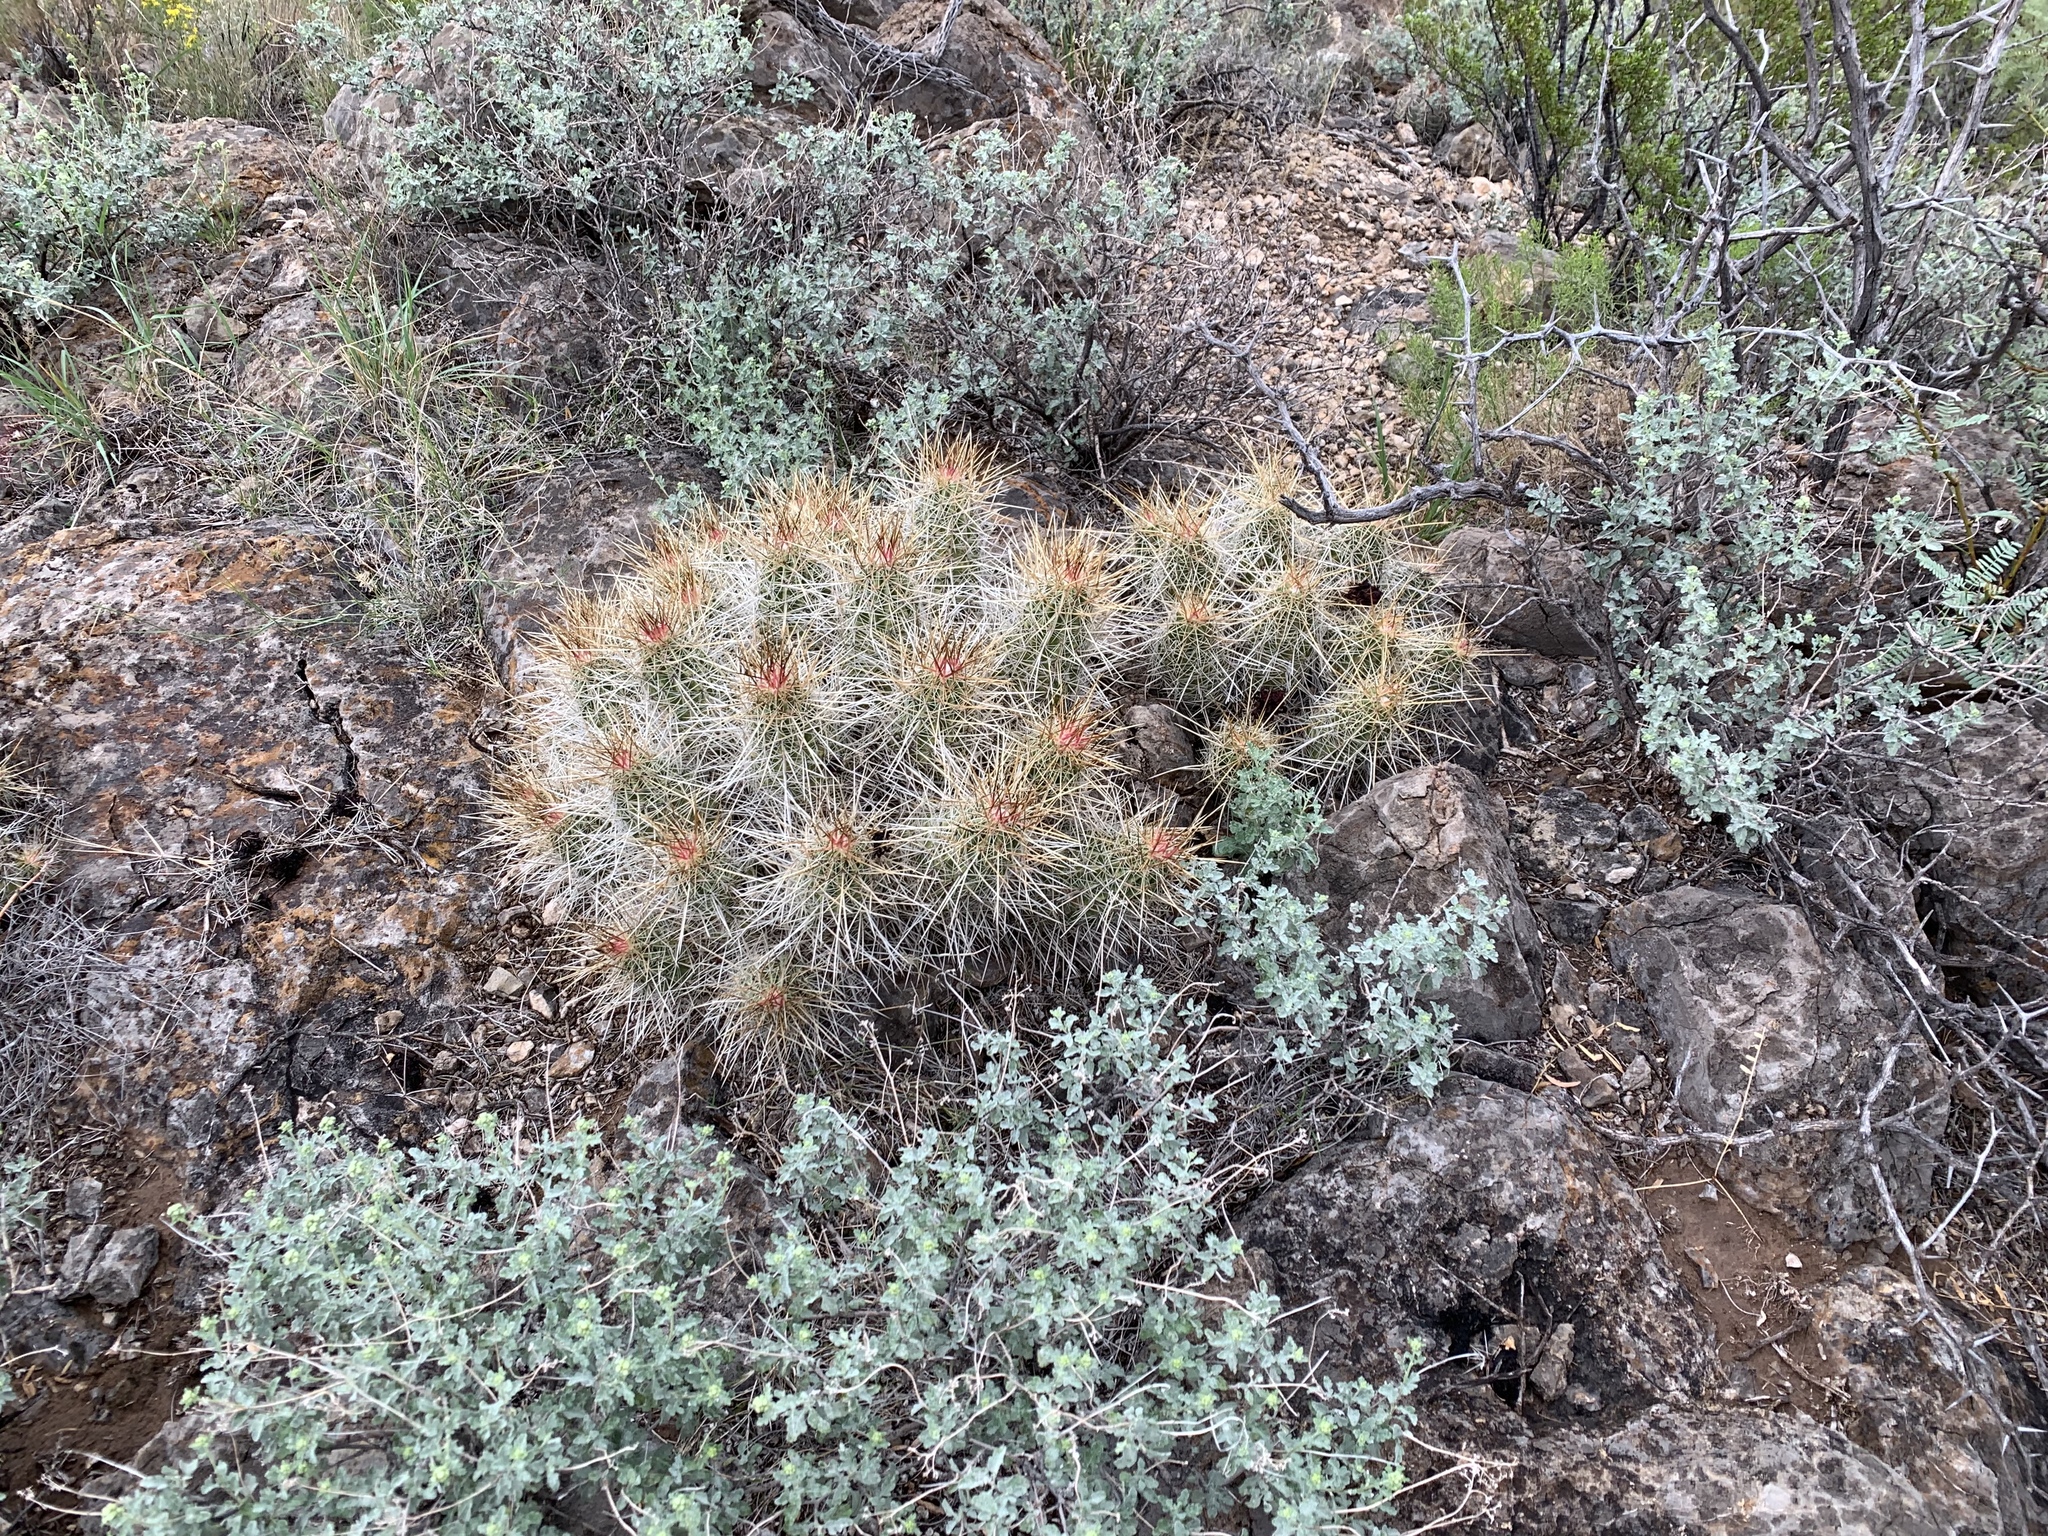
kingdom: Plantae
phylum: Tracheophyta
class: Magnoliopsida
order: Caryophyllales
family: Cactaceae
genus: Echinocereus
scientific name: Echinocereus stramineus
